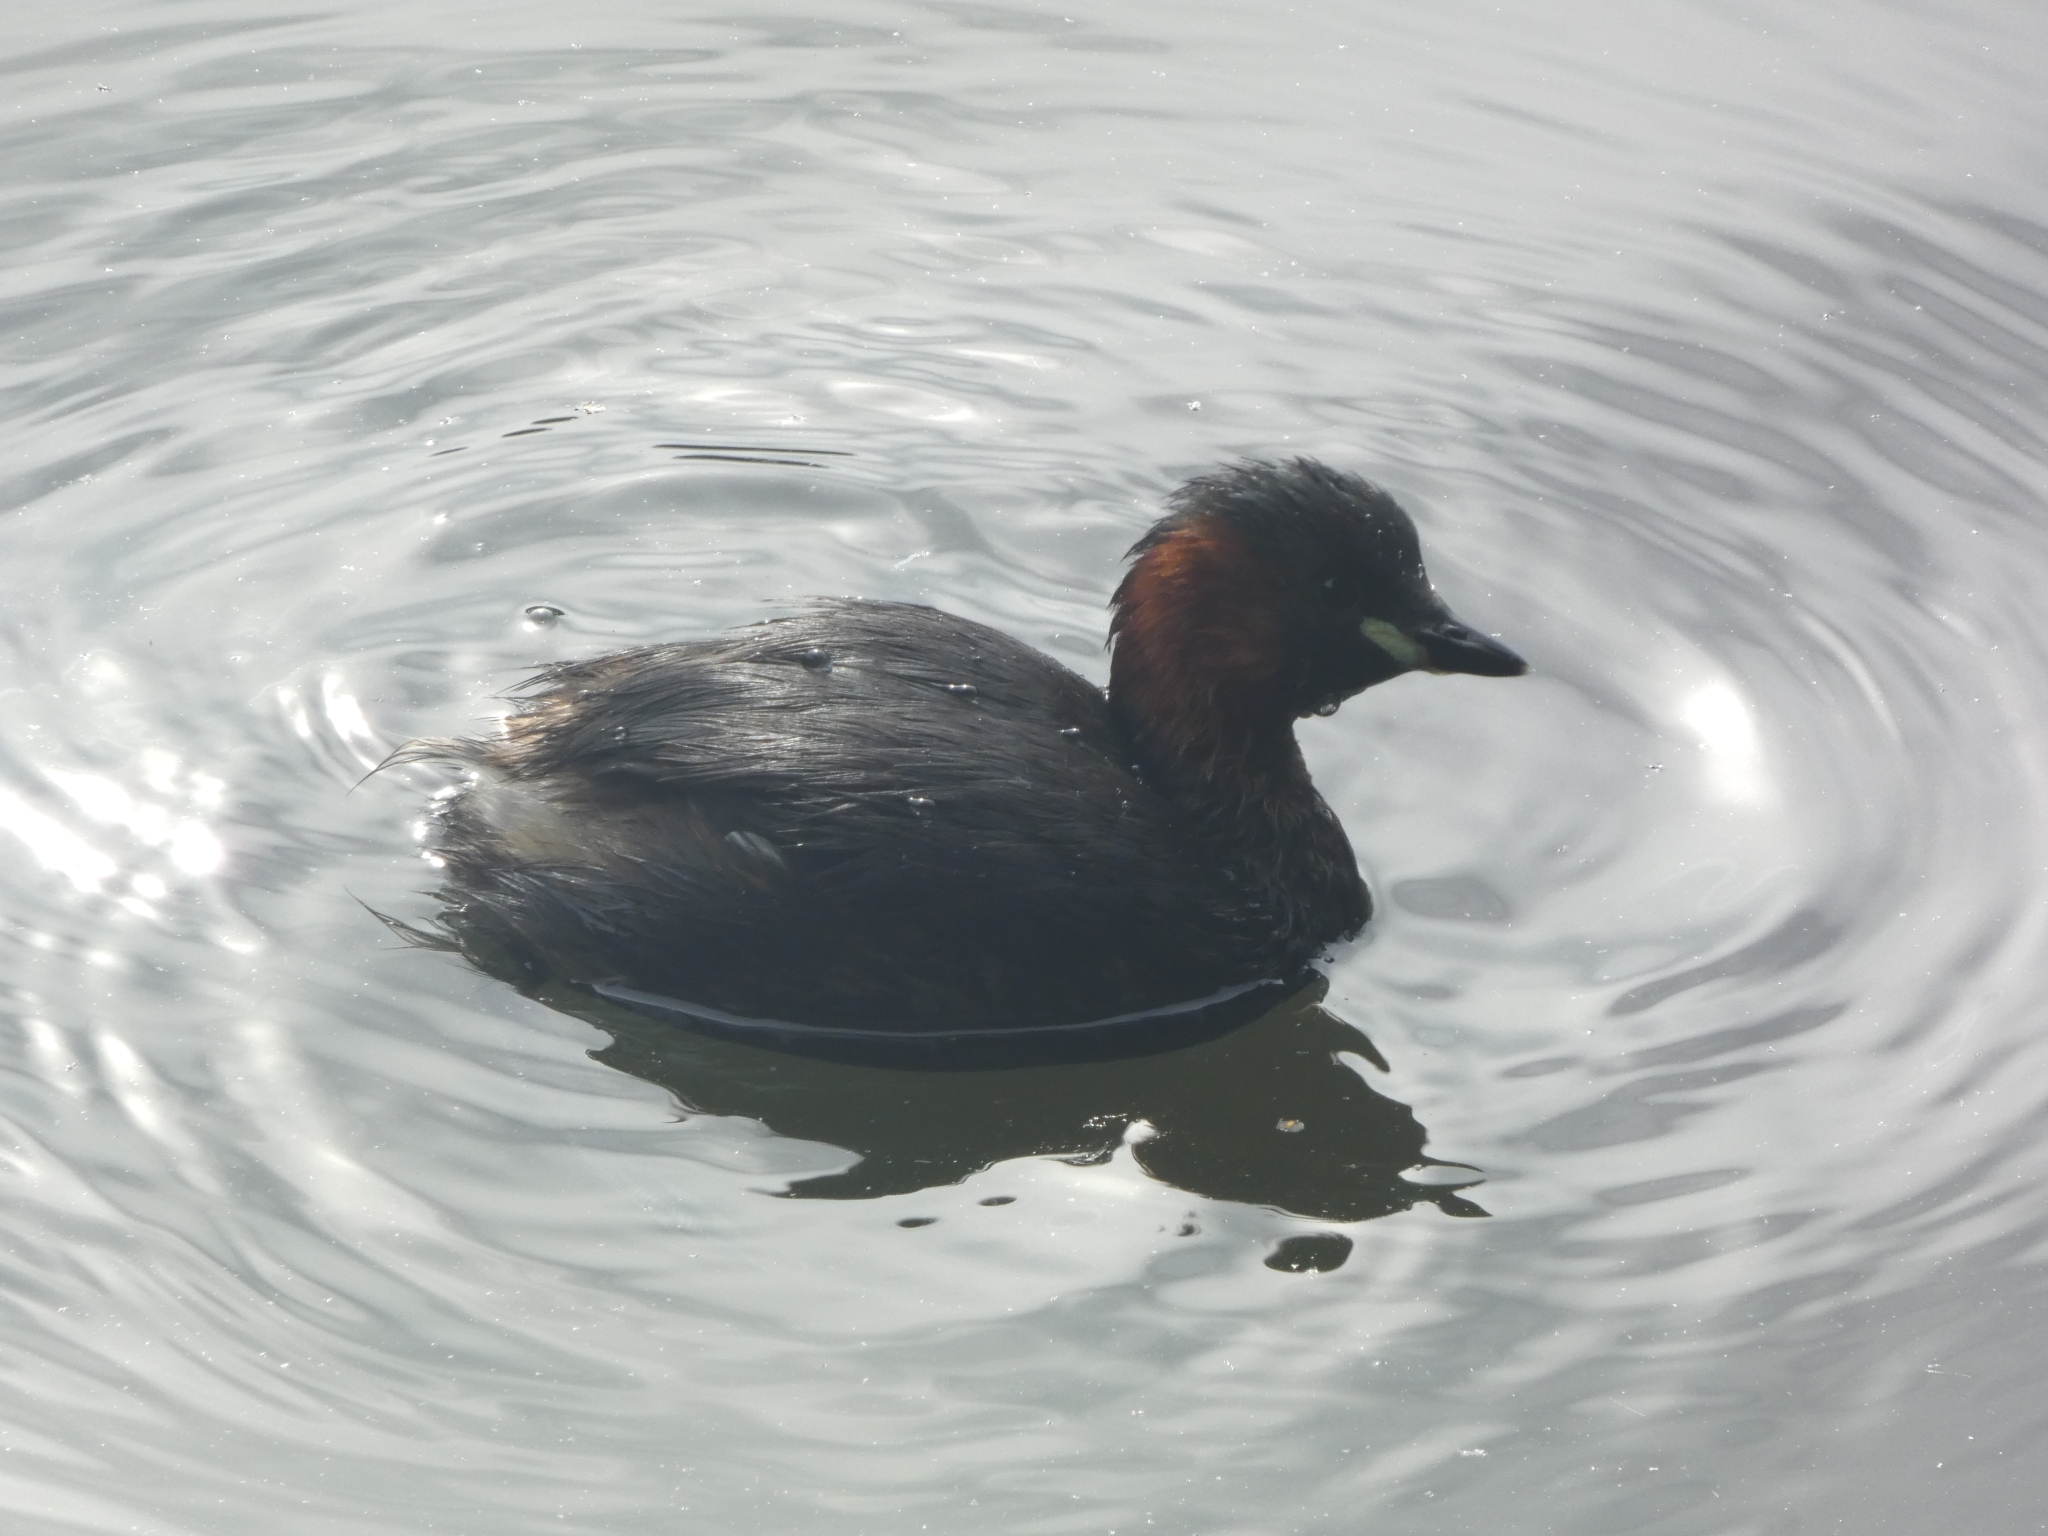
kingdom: Animalia
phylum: Chordata
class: Aves
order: Podicipediformes
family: Podicipedidae
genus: Tachybaptus
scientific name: Tachybaptus ruficollis
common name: Little grebe
